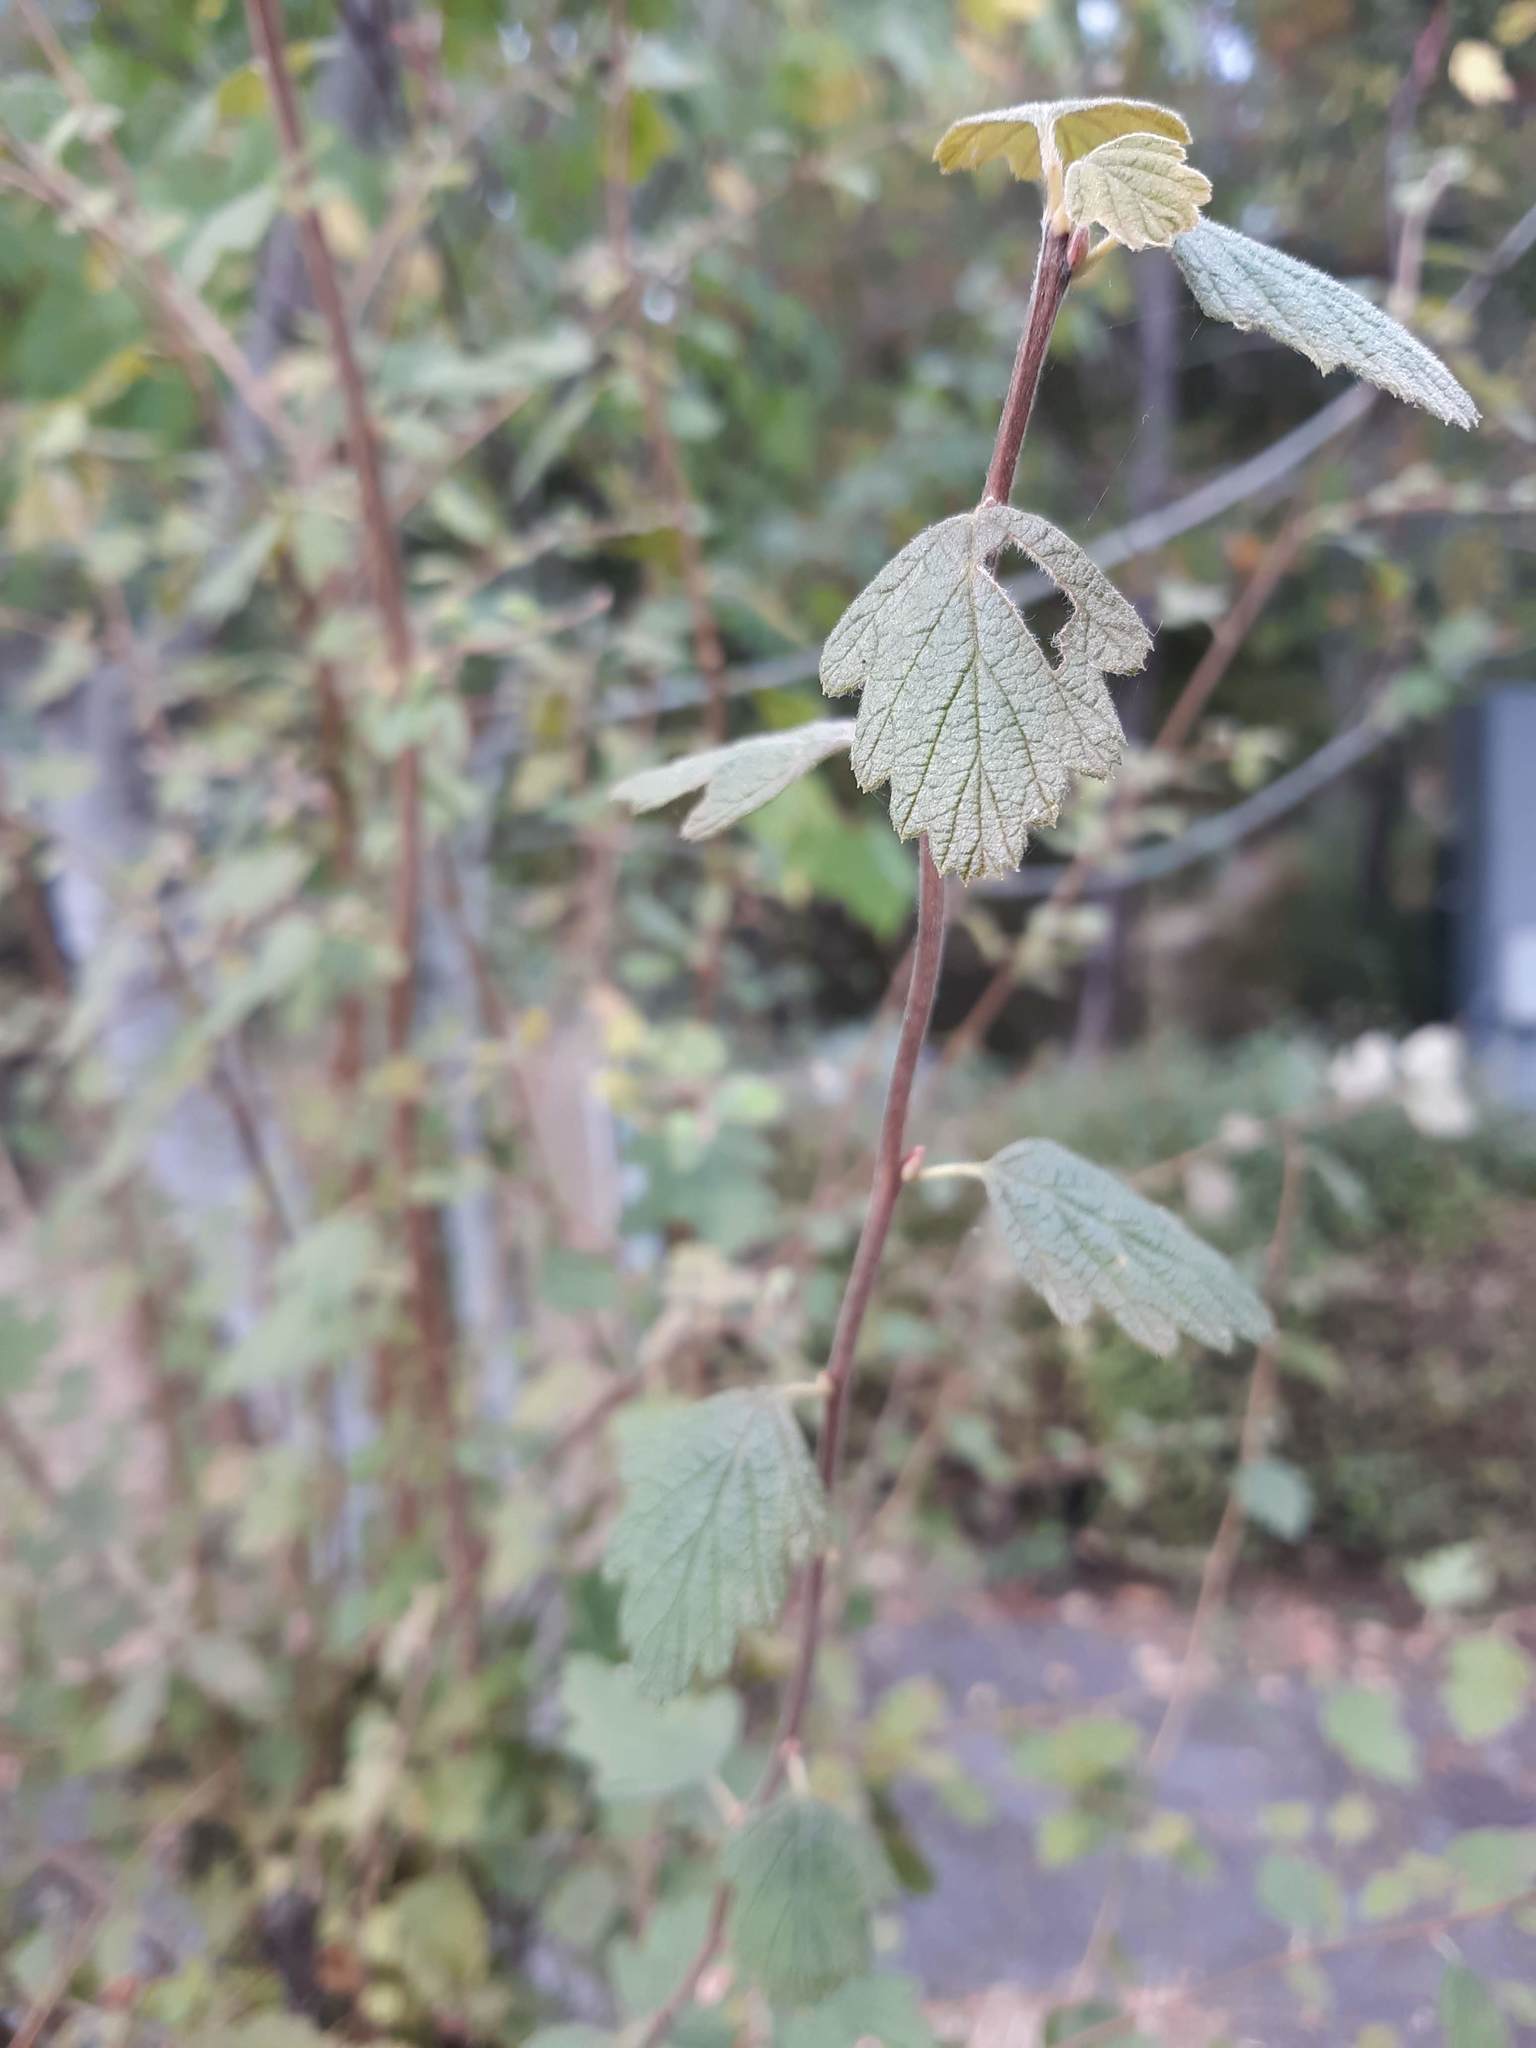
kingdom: Plantae
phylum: Tracheophyta
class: Magnoliopsida
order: Rosales
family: Rosaceae
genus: Holodiscus
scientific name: Holodiscus discolor
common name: Oceanspray
